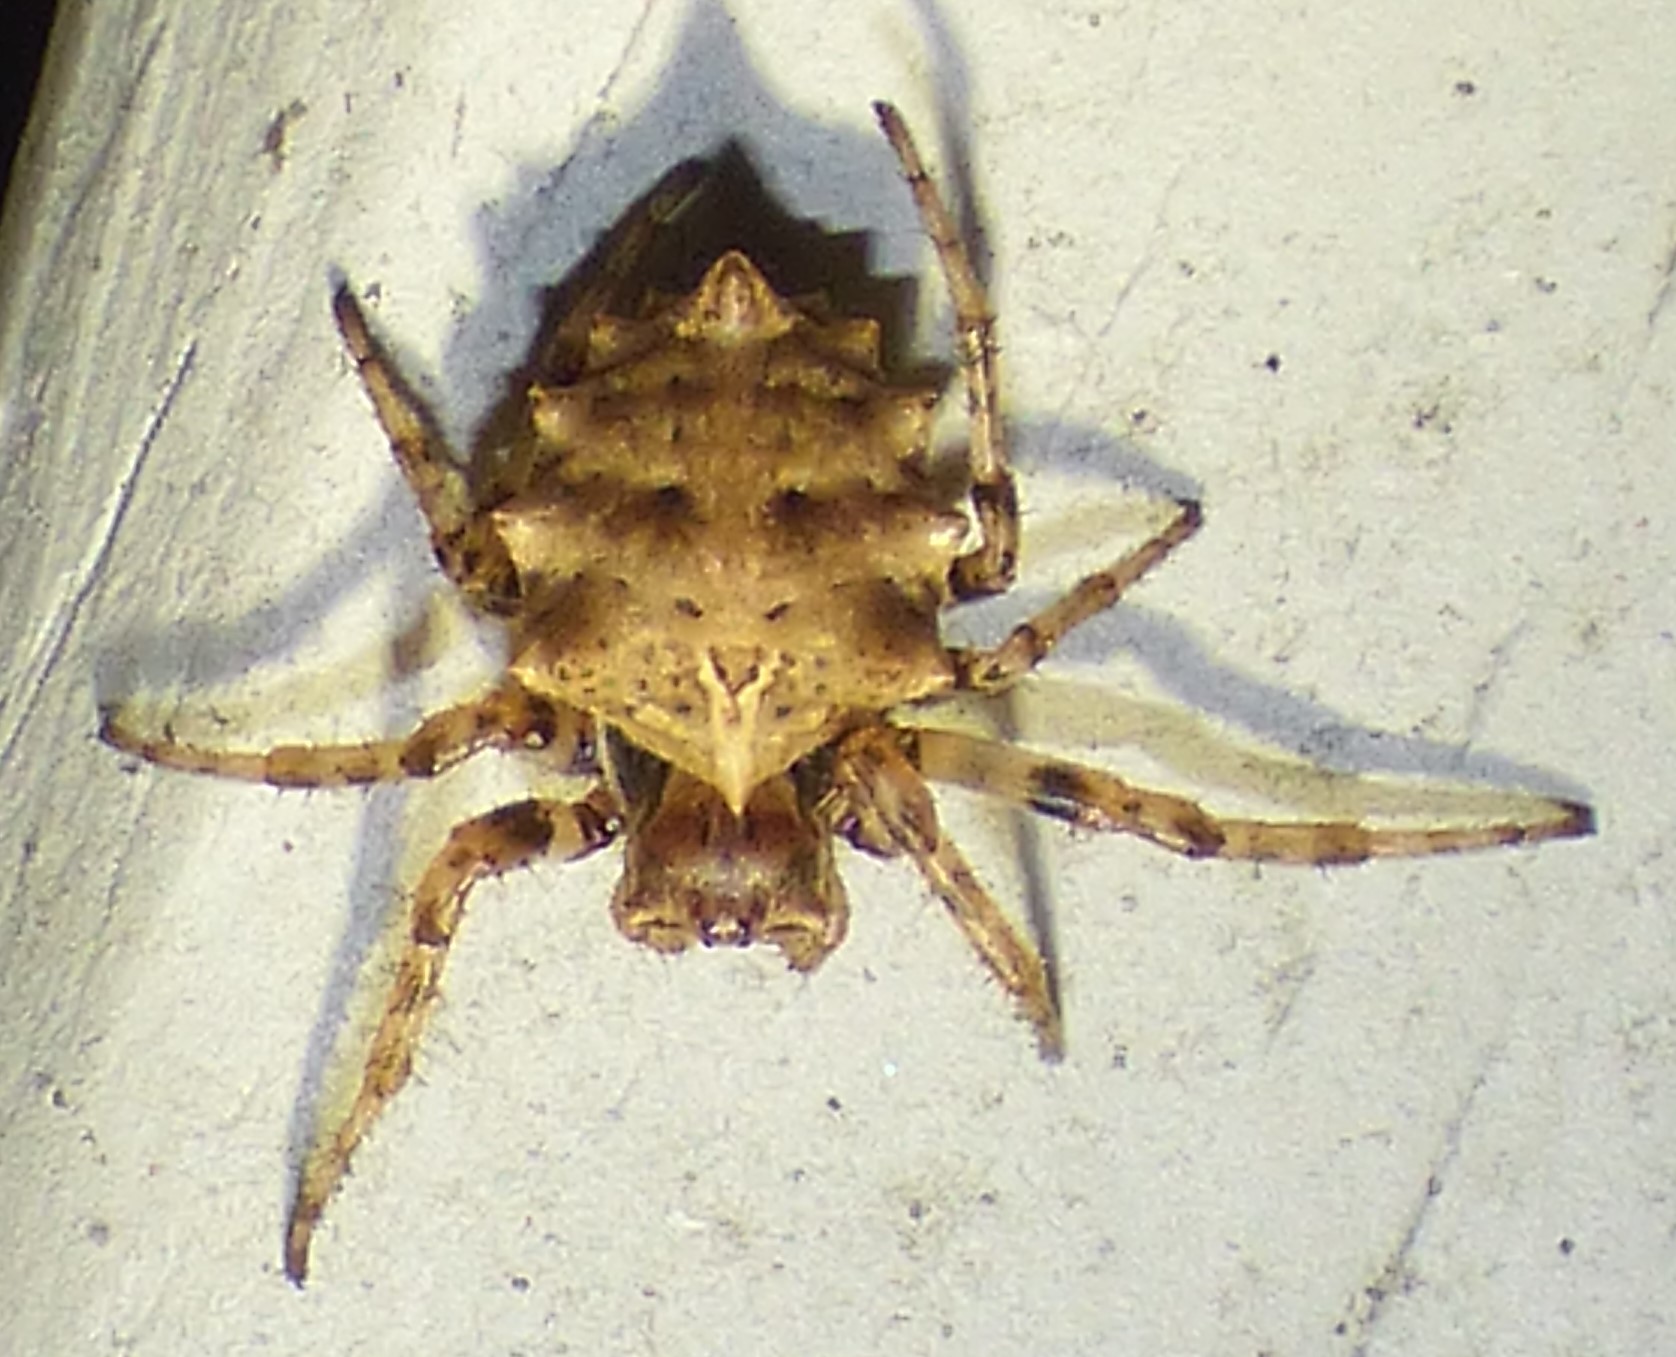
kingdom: Animalia
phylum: Arthropoda
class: Arachnida
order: Araneae
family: Araneidae
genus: Acanthepeira
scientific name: Acanthepeira stellata
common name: Starbellied orbweaver
